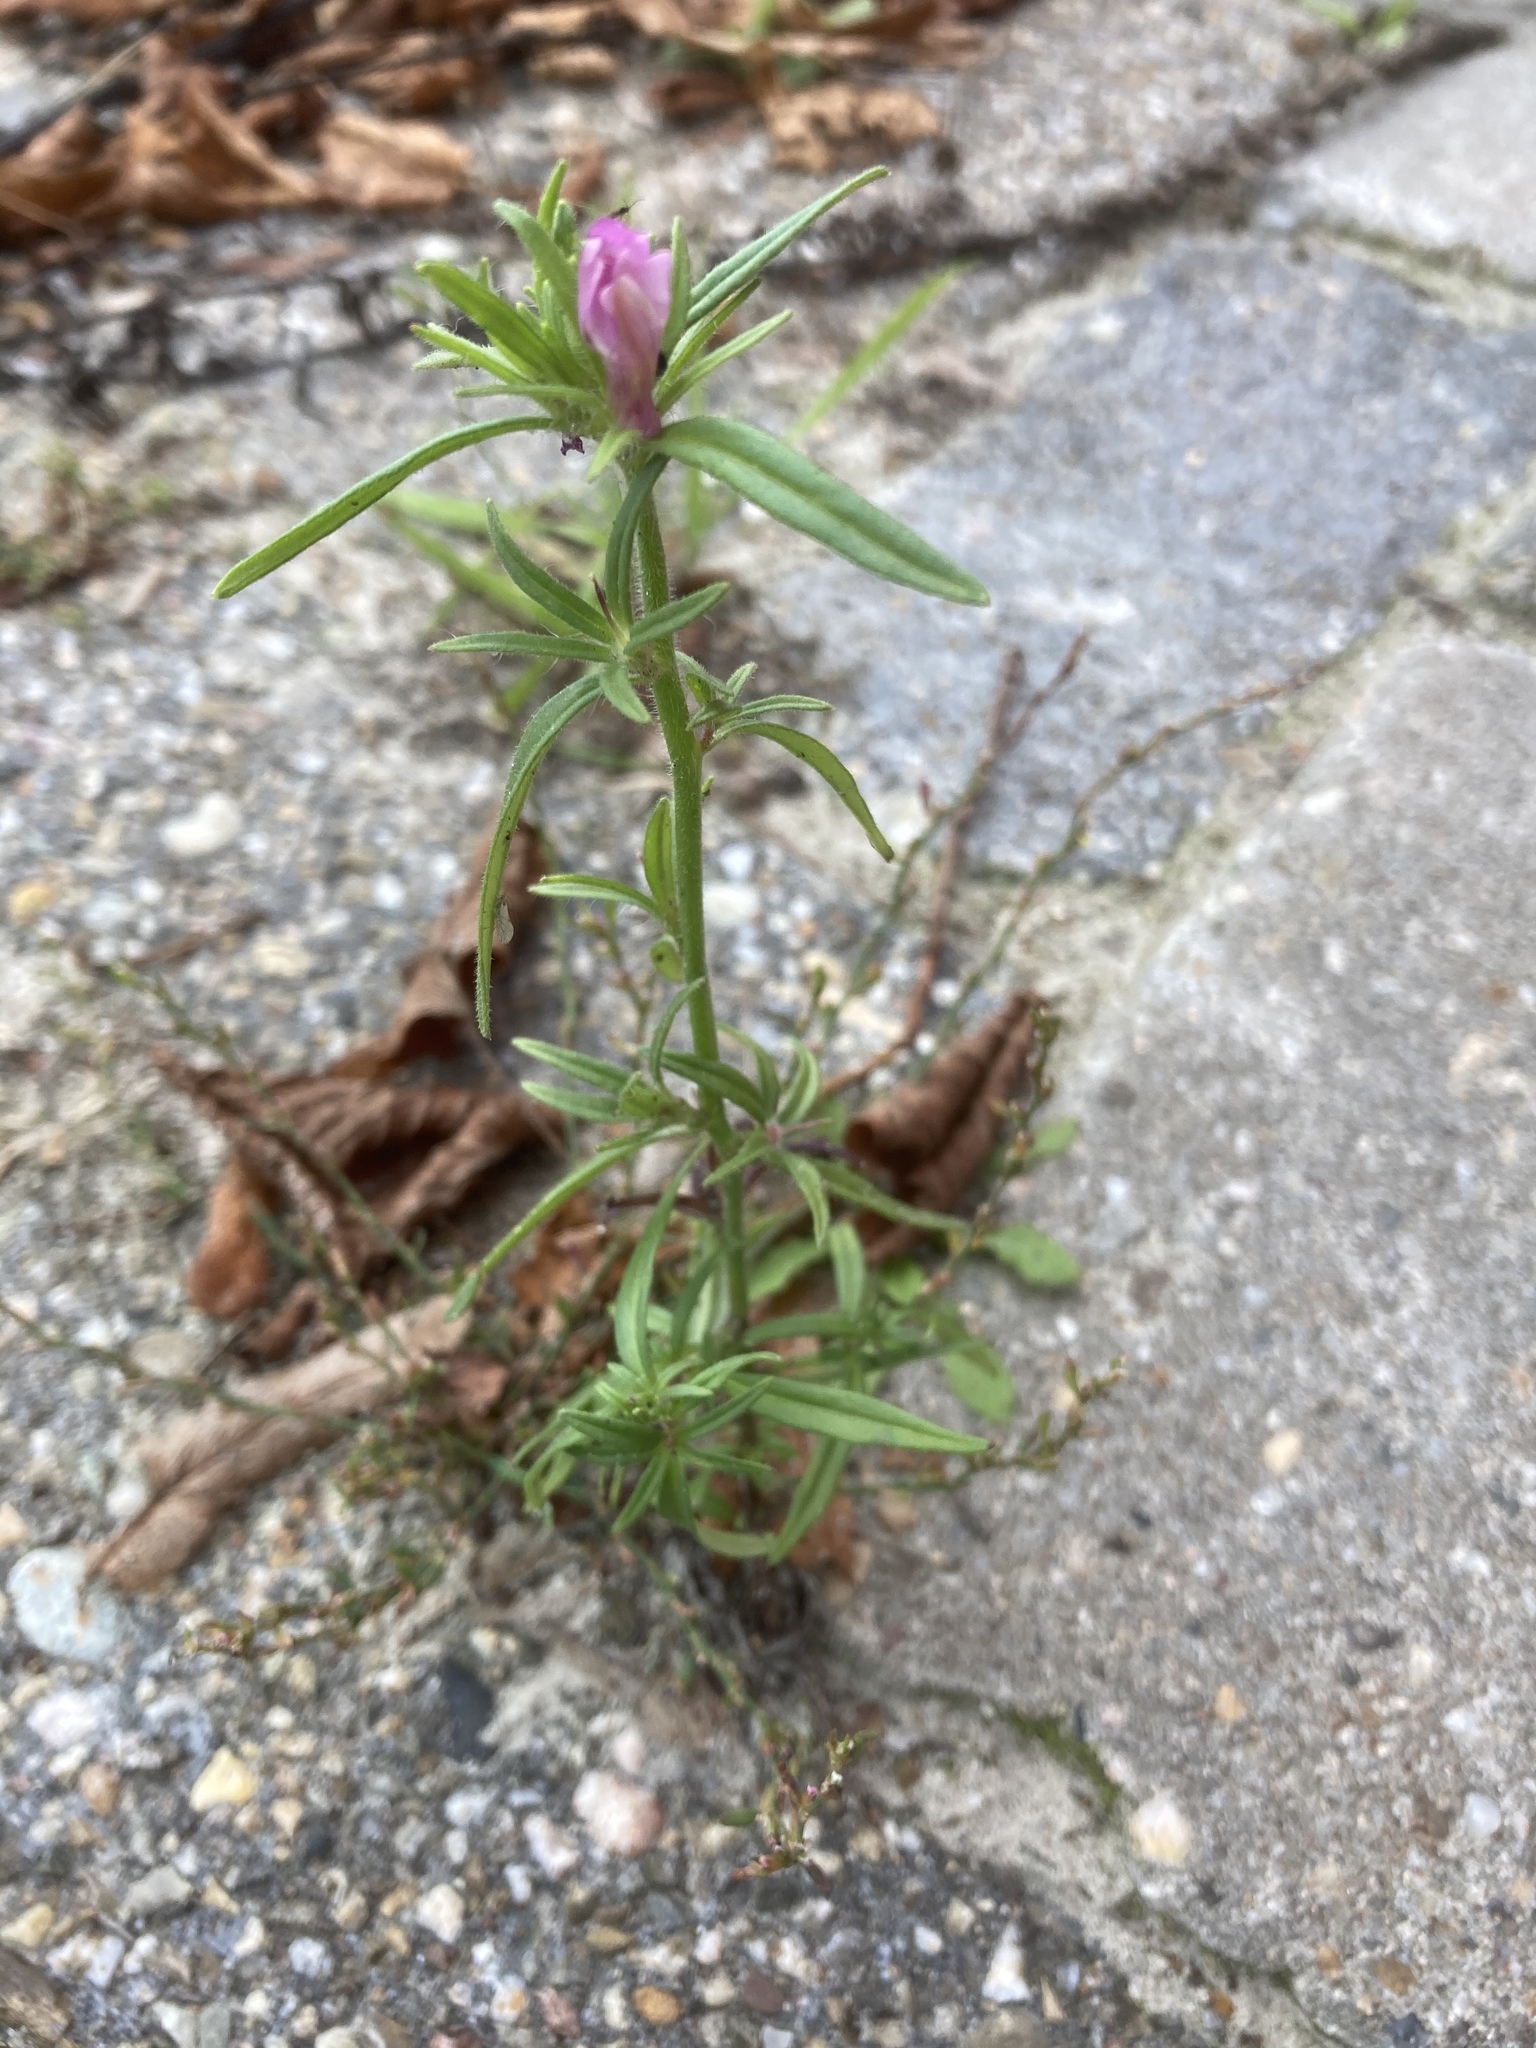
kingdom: Plantae
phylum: Tracheophyta
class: Magnoliopsida
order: Lamiales
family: Plantaginaceae
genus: Misopates
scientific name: Misopates orontium
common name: Weasel's-snout
